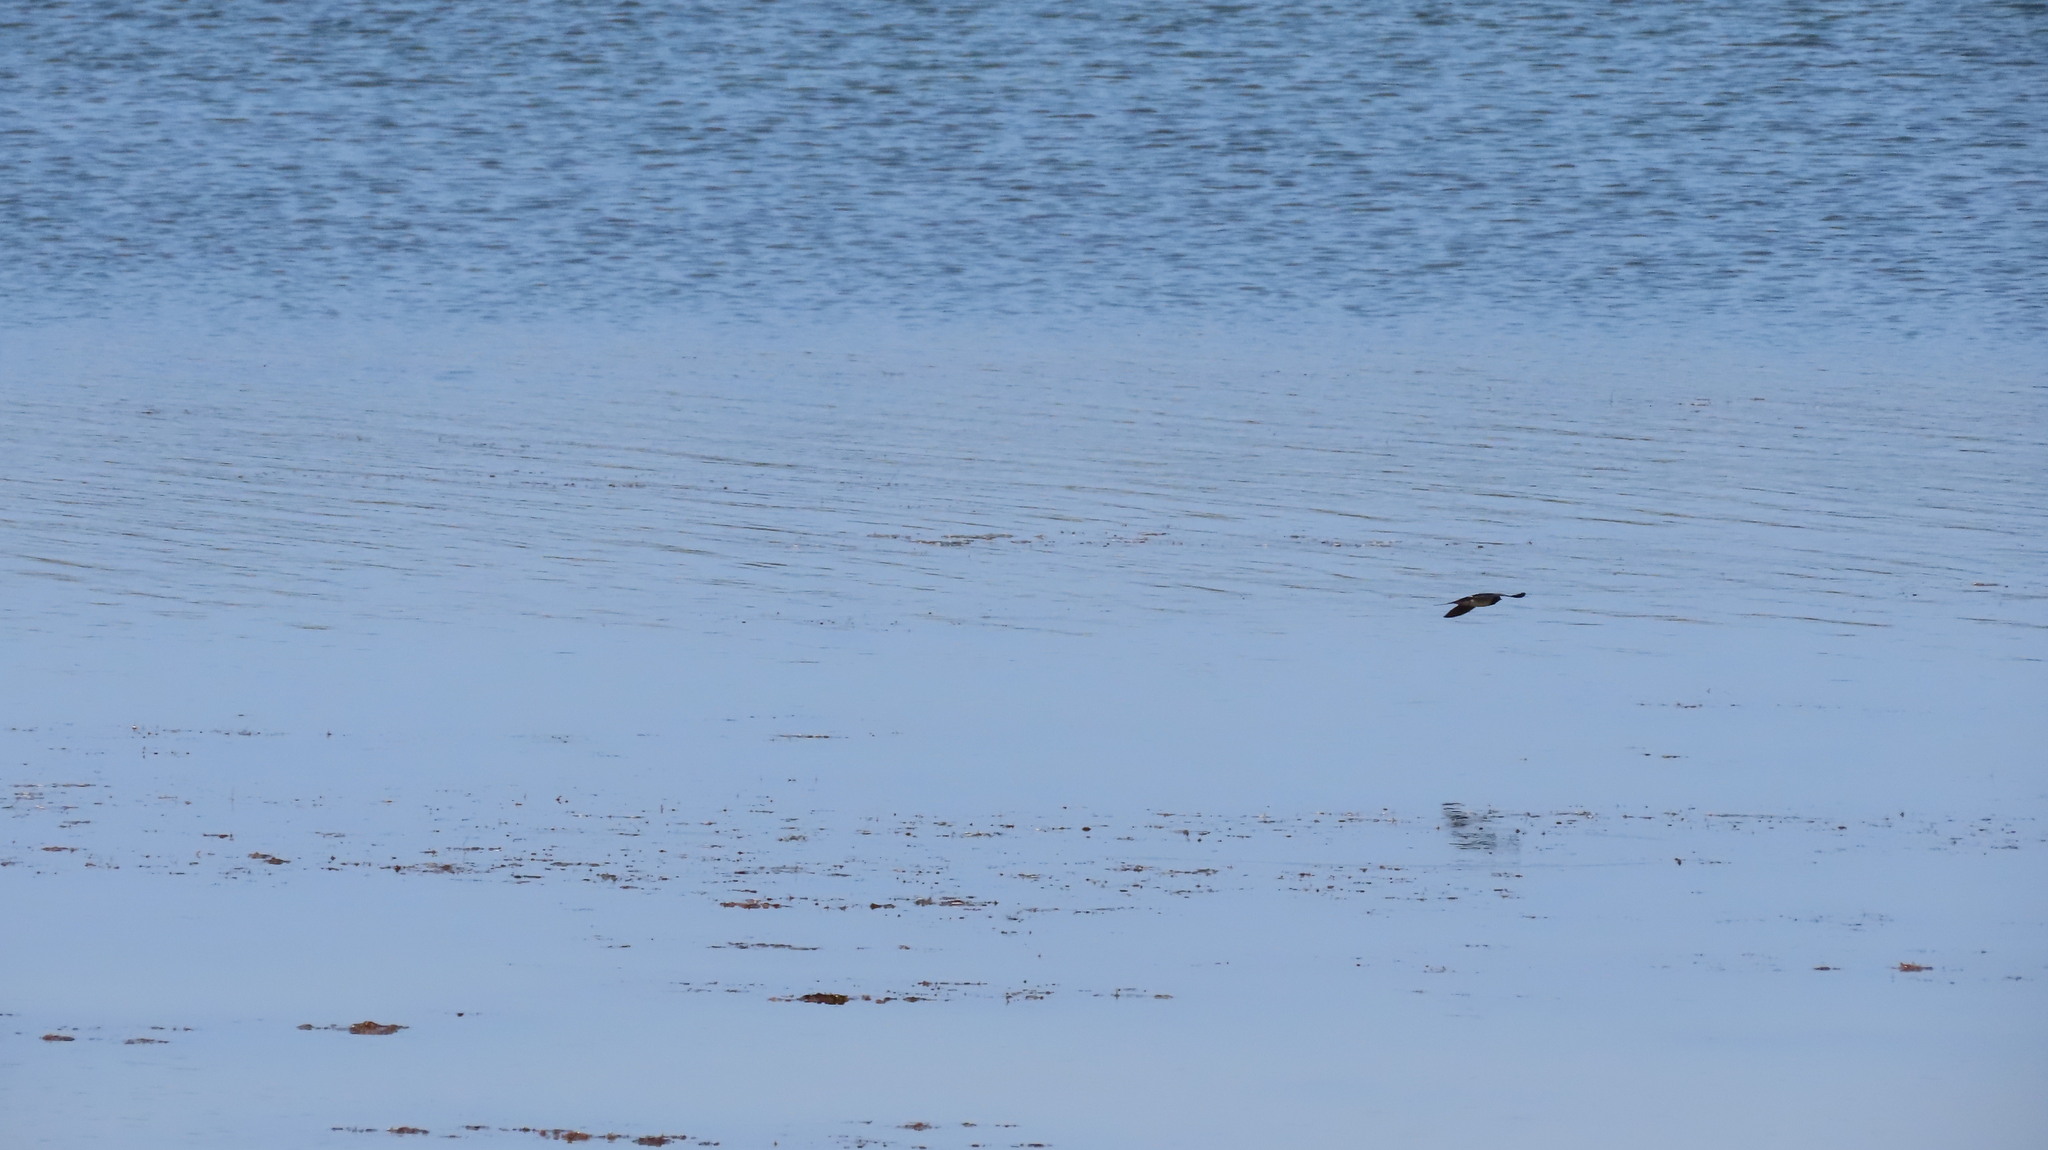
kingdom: Animalia
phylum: Chordata
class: Aves
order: Passeriformes
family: Hirundinidae
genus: Hirundo
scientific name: Hirundo rustica
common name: Barn swallow
